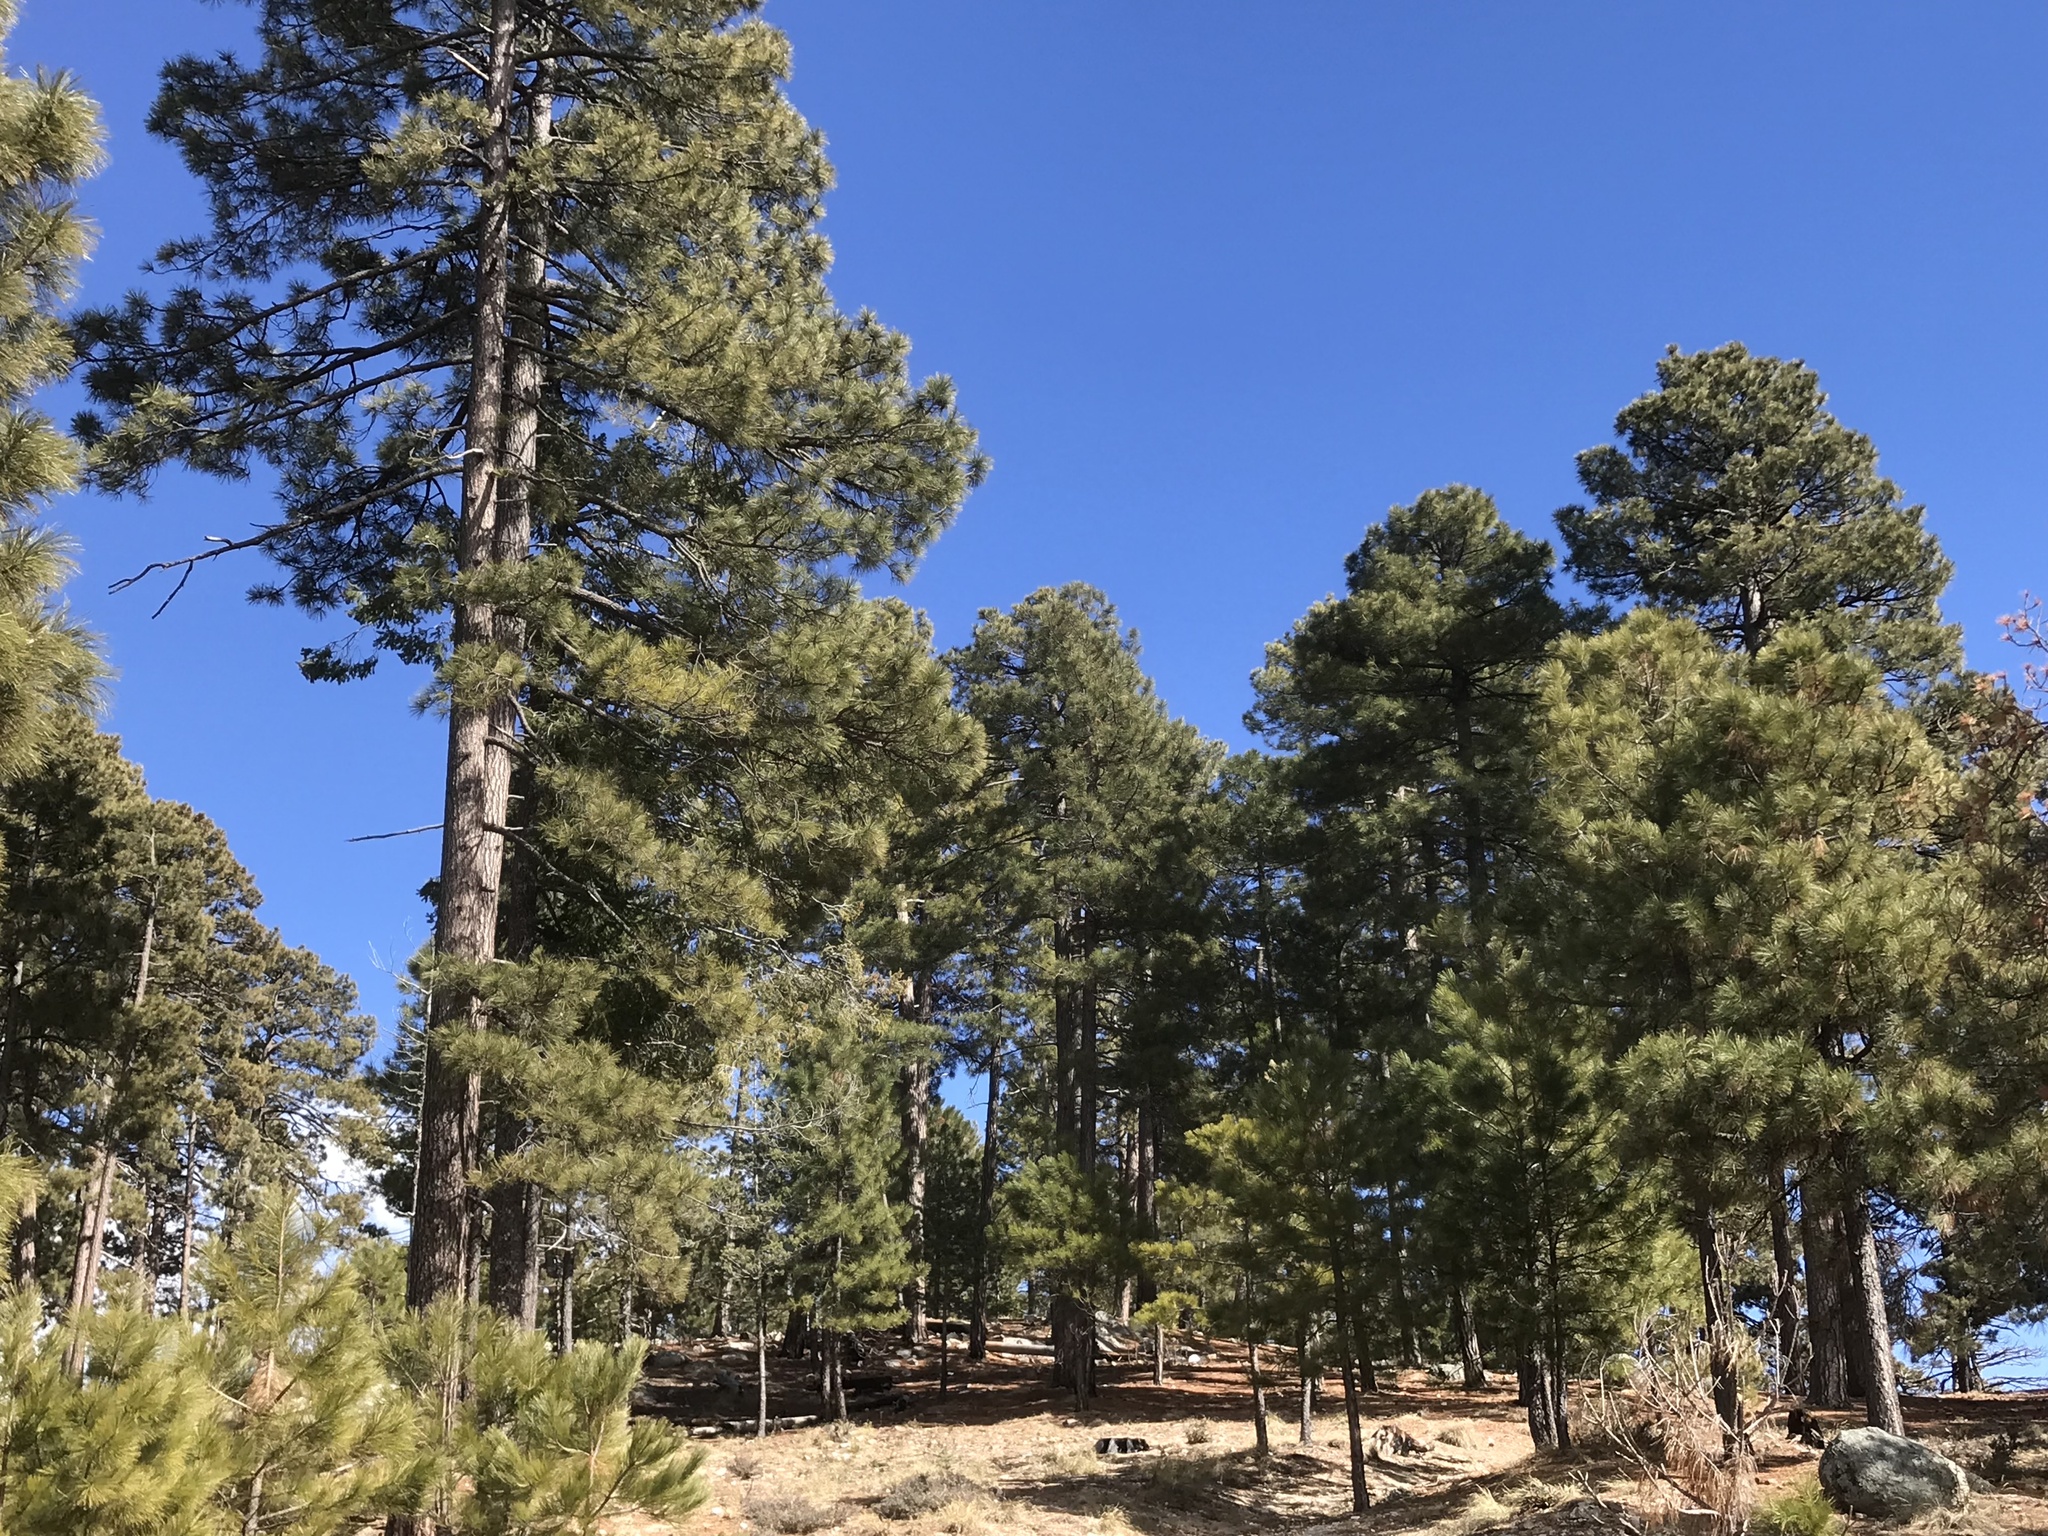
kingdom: Plantae
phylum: Tracheophyta
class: Pinopsida
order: Pinales
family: Pinaceae
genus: Pinus
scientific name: Pinus ponderosa
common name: Western yellow-pine
